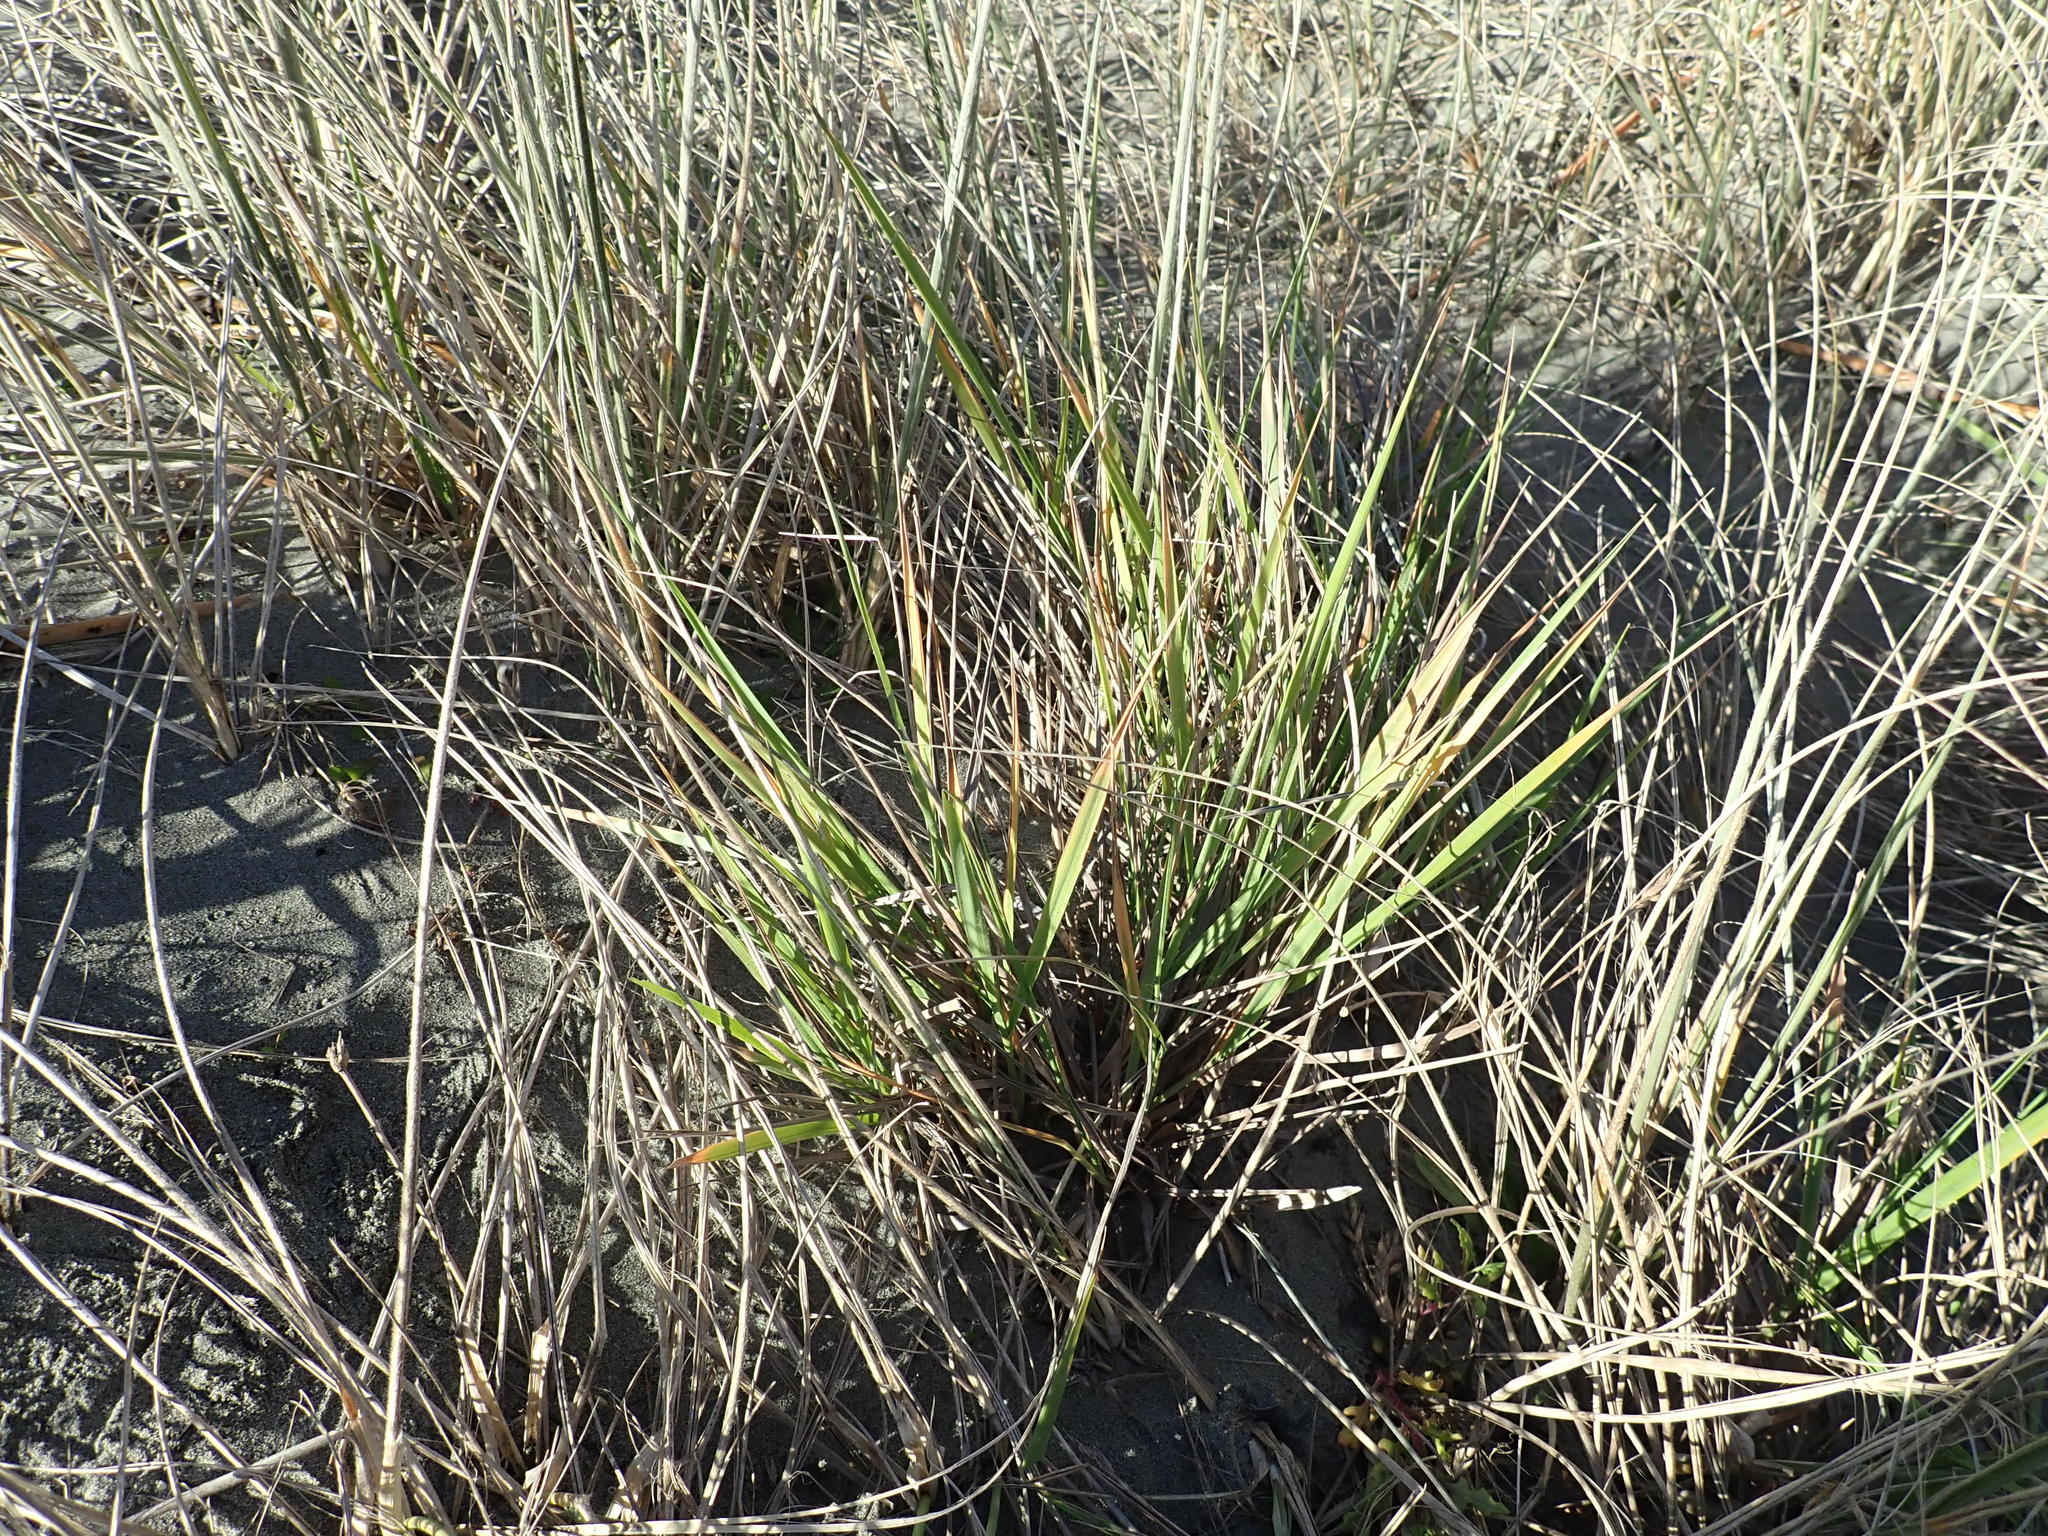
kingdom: Plantae
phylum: Tracheophyta
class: Liliopsida
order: Poales
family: Poaceae
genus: Lachnagrostis
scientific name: Lachnagrostis billardierei
